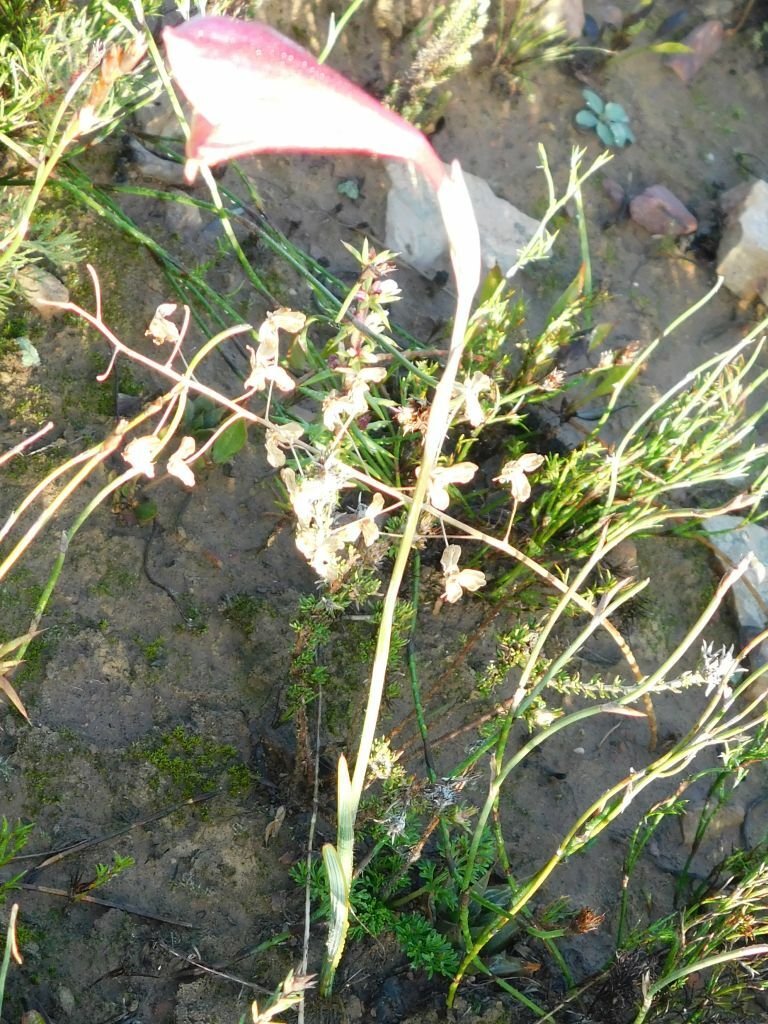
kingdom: Plantae
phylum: Tracheophyta
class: Liliopsida
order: Asparagales
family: Iridaceae
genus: Gladiolus
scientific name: Gladiolus guthriei
